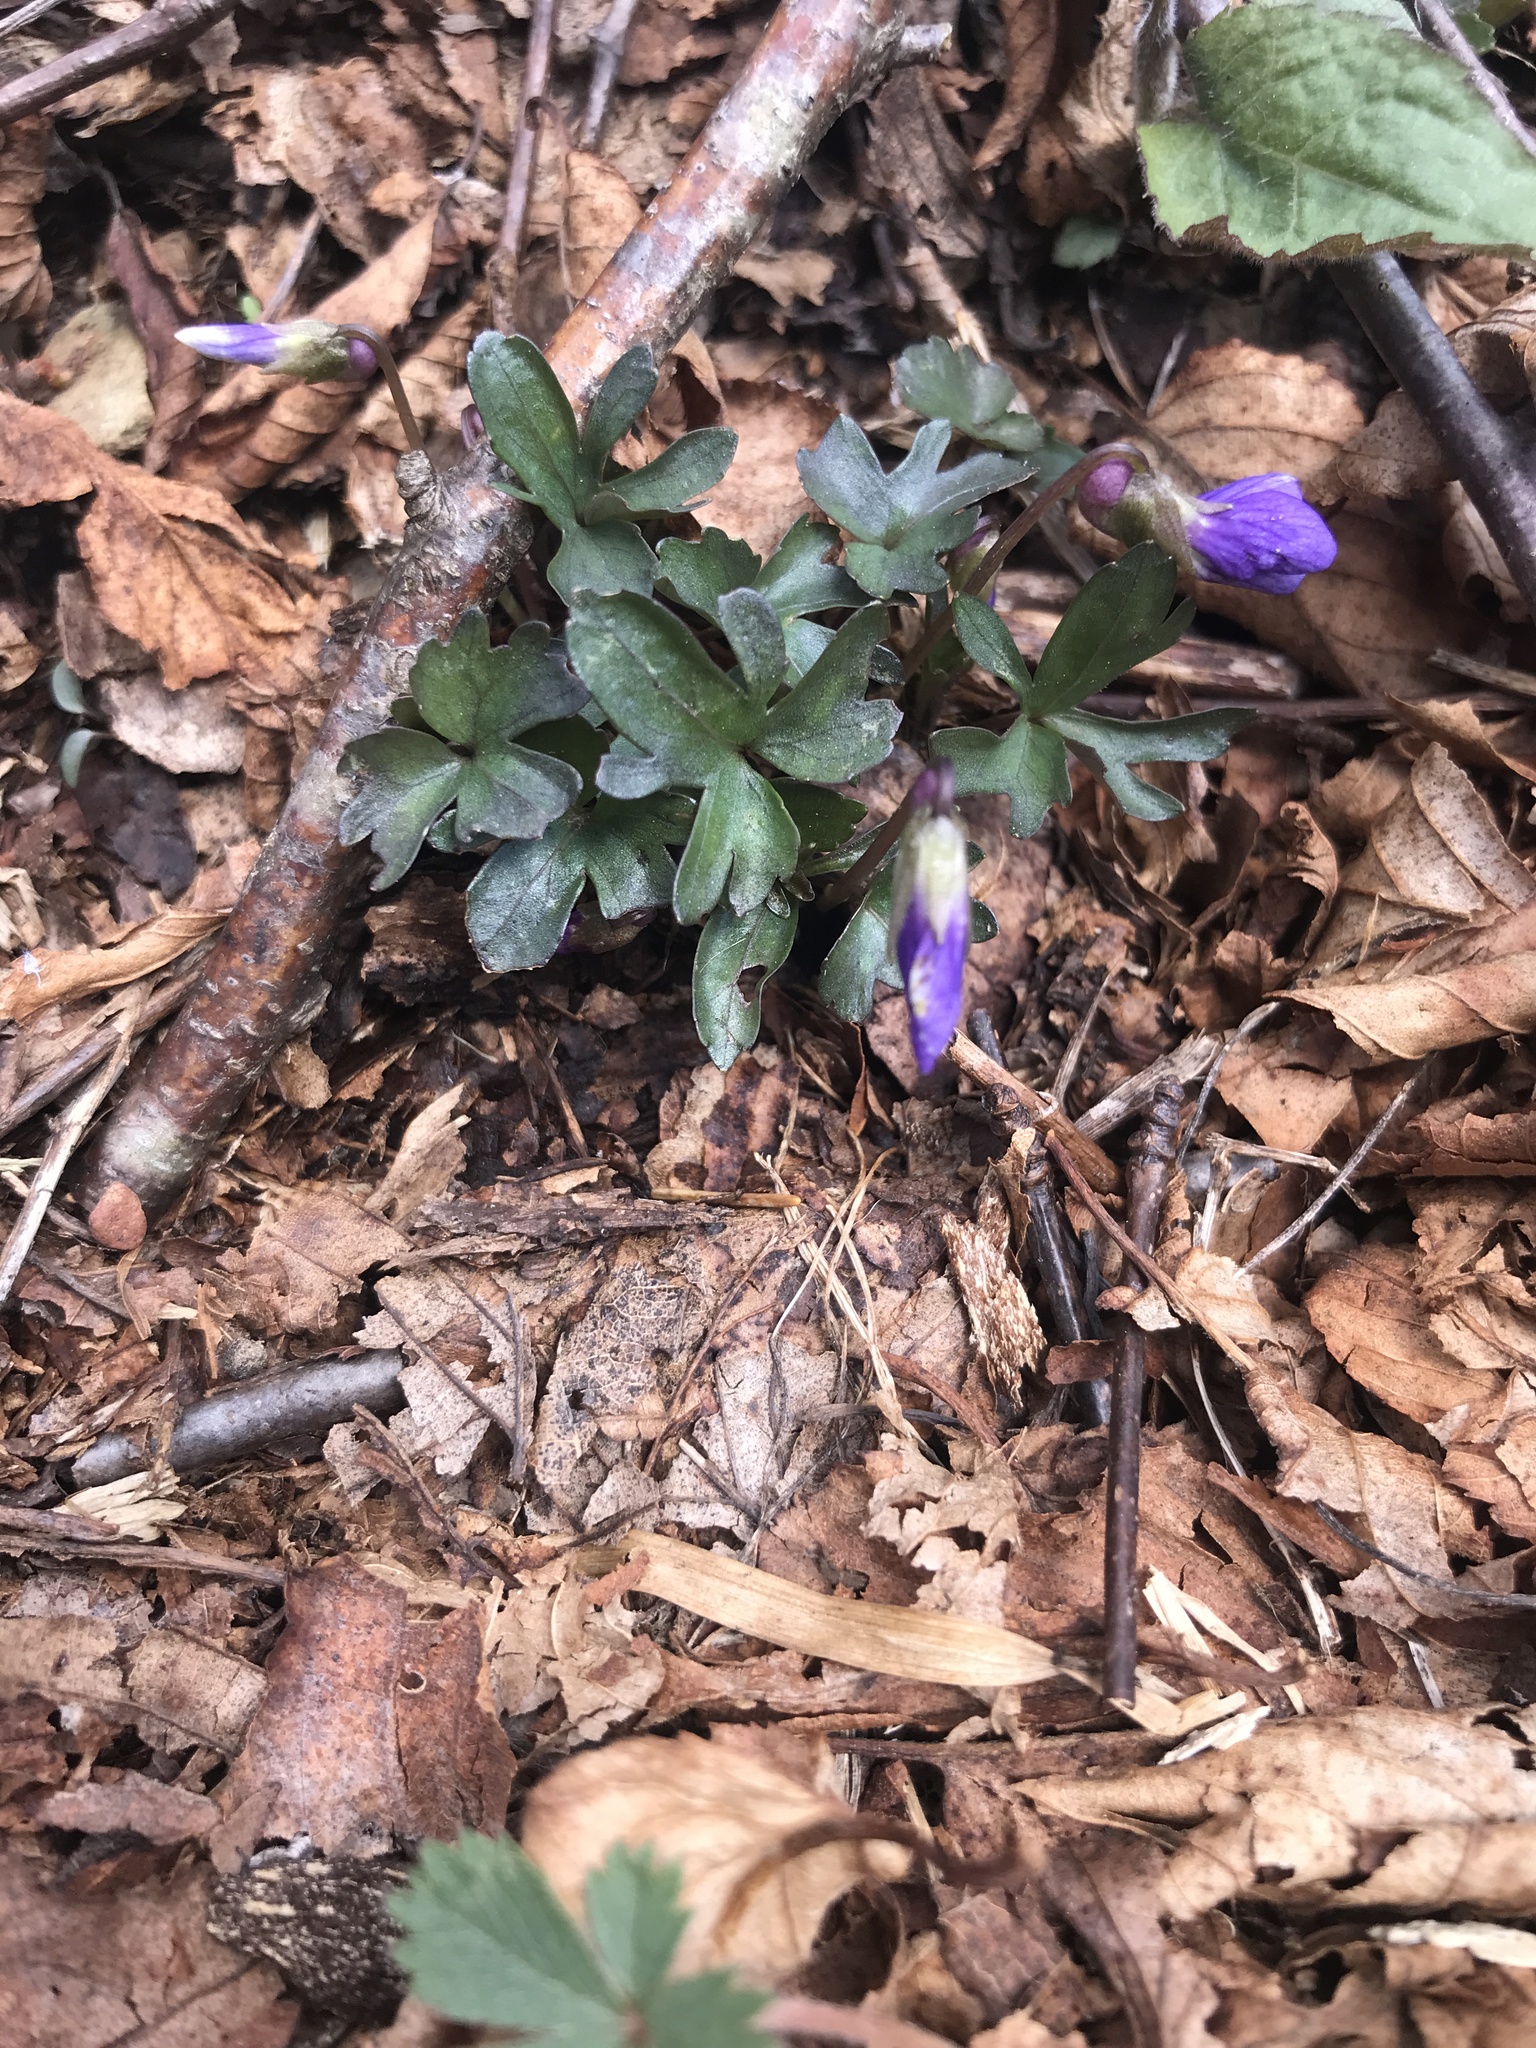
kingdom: Plantae
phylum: Tracheophyta
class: Magnoliopsida
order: Malpighiales
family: Violaceae
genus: Viola
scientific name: Viola palmata
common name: Early blue violet
